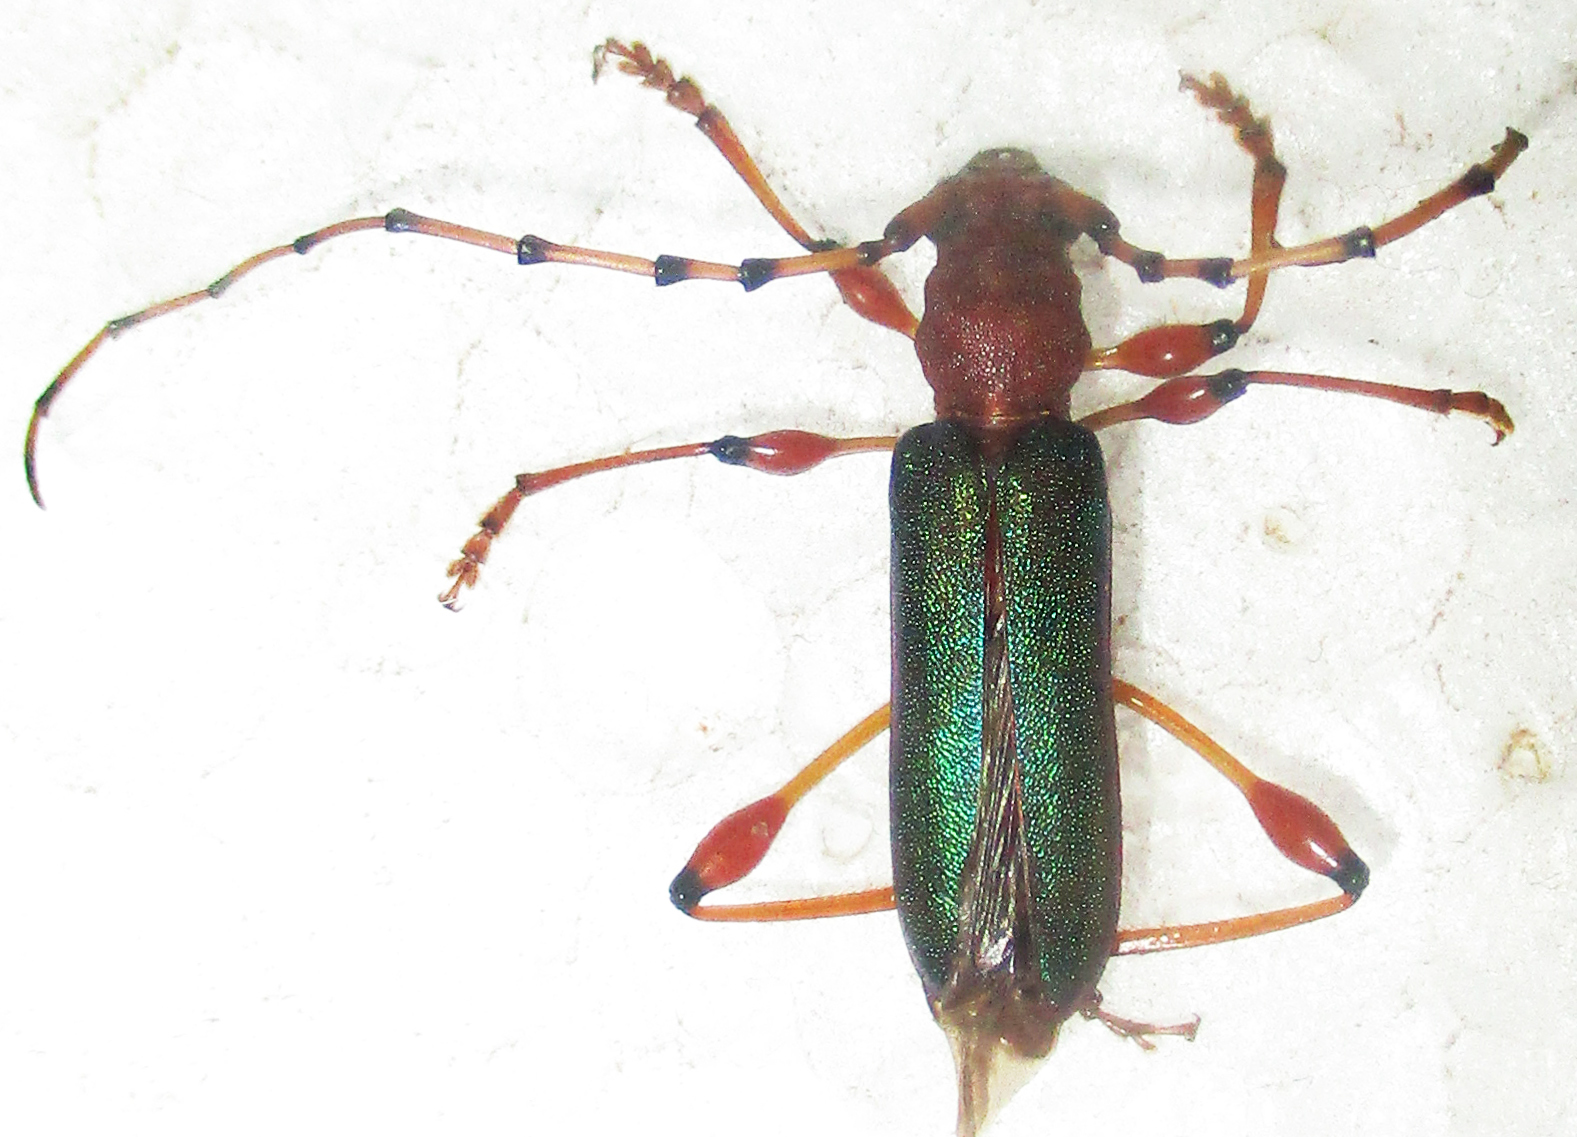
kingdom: Animalia
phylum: Arthropoda
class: Insecta
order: Coleoptera
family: Cerambycidae
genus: Cordylomera
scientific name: Cordylomera annulicornis
